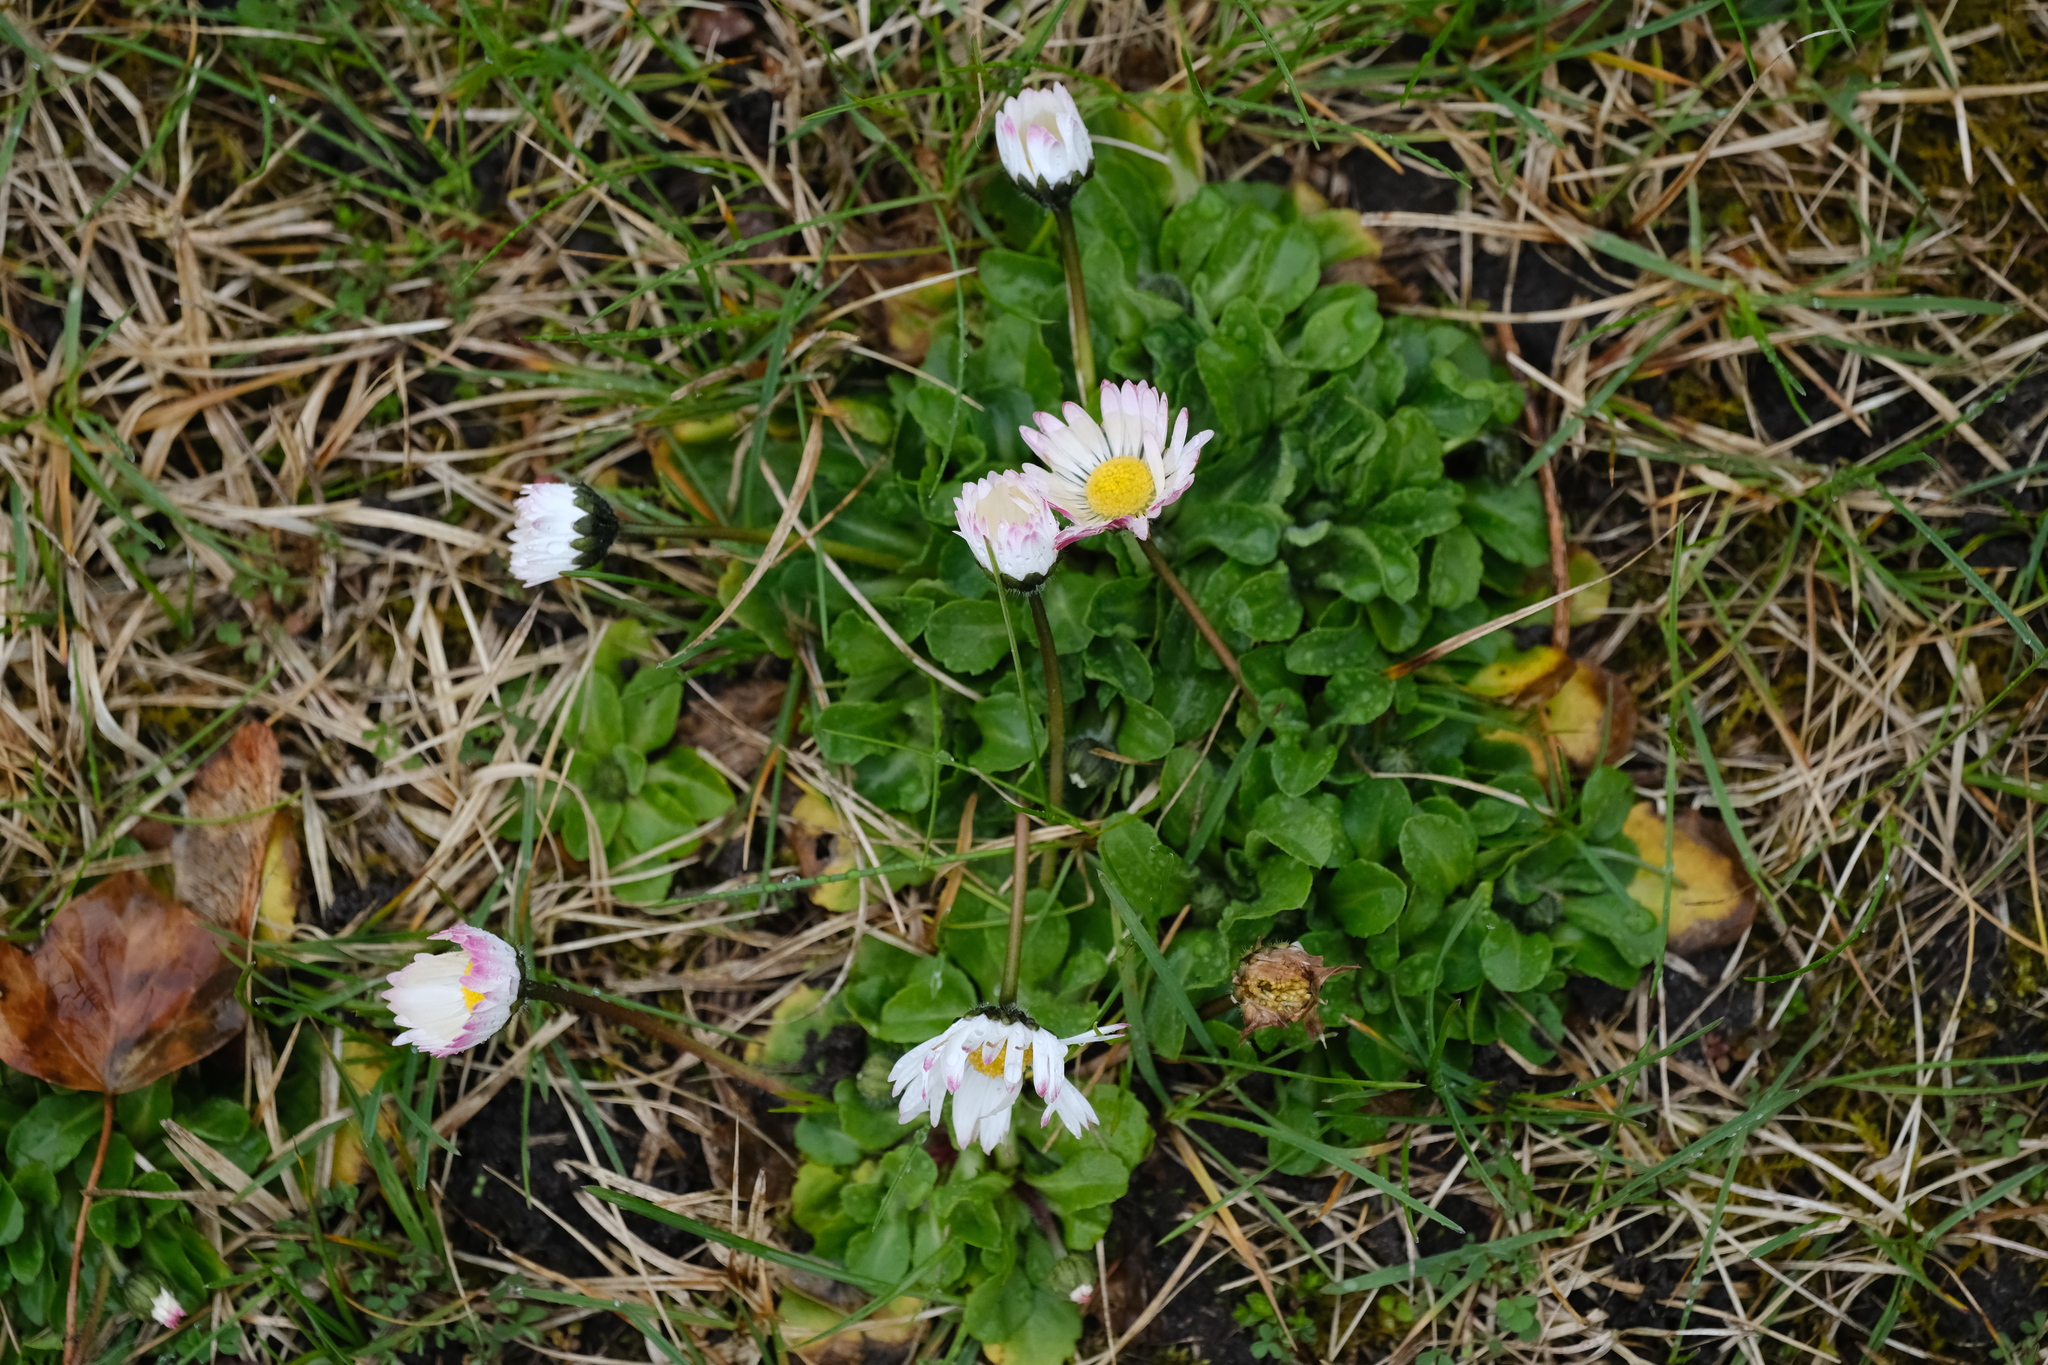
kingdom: Plantae
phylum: Tracheophyta
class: Magnoliopsida
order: Asterales
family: Asteraceae
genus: Bellis
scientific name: Bellis perennis
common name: Lawndaisy
